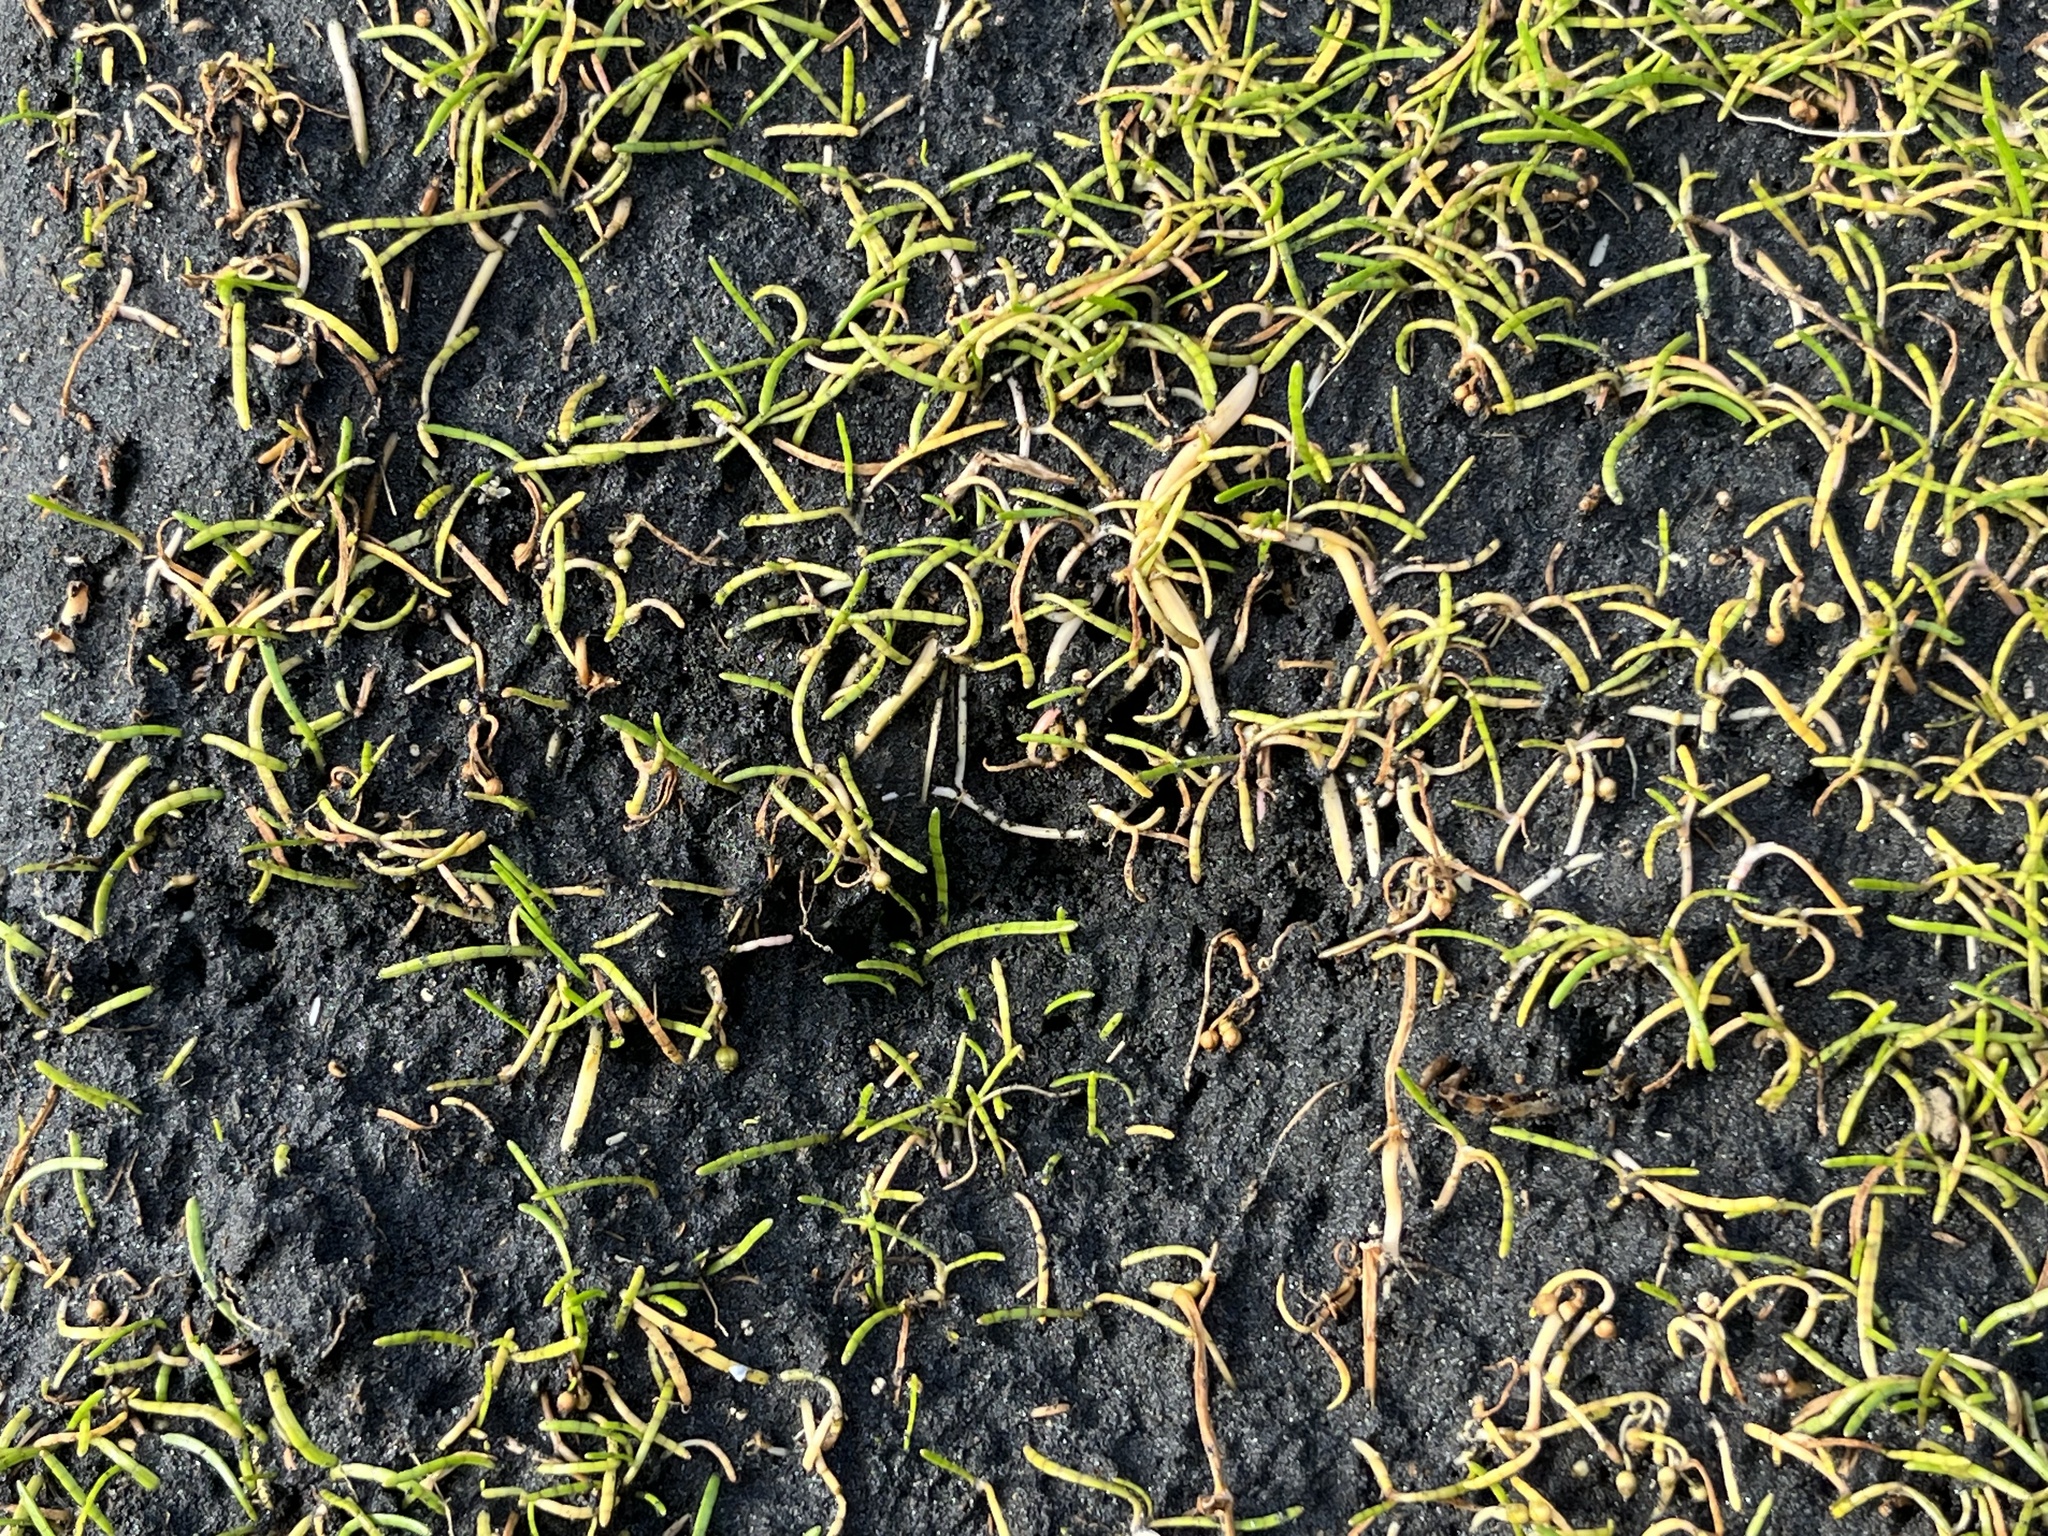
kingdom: Plantae
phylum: Tracheophyta
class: Magnoliopsida
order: Apiales
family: Apiaceae
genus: Lilaeopsis
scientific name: Lilaeopsis novae-zelandiae
